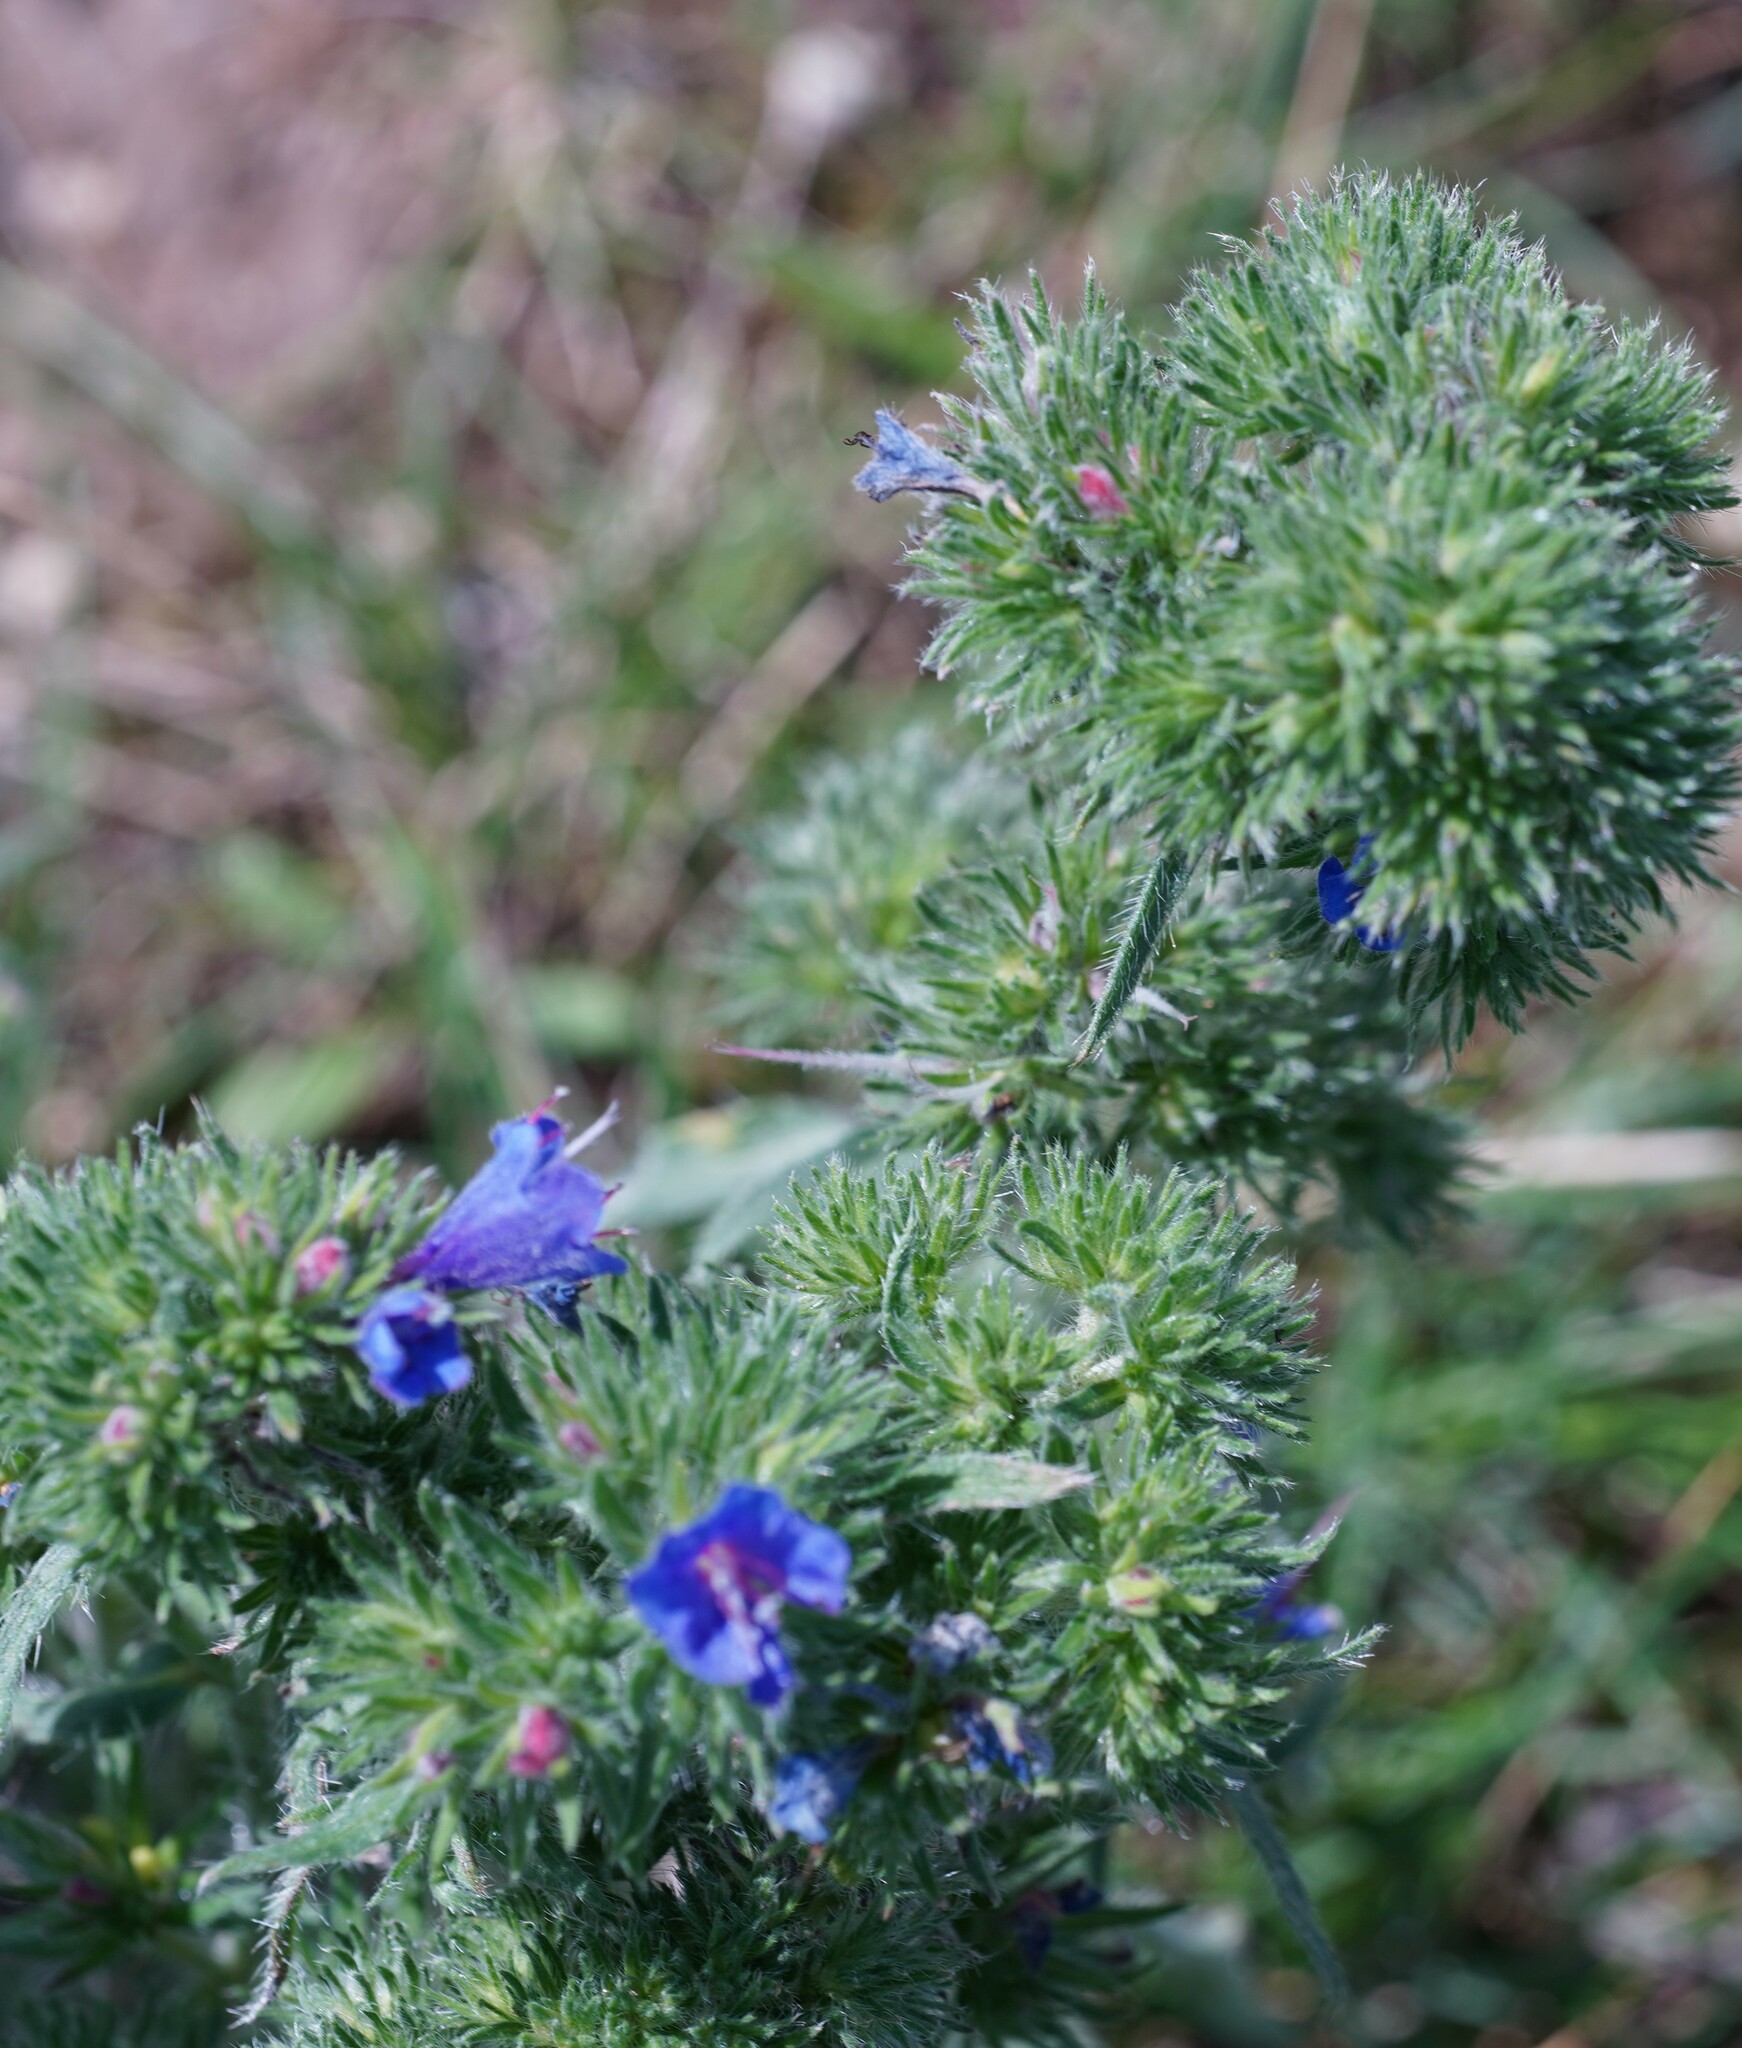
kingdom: Animalia
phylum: Arthropoda
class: Arachnida
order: Trombidiformes
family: Eriophyidae
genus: Aceria
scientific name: Aceria echii
